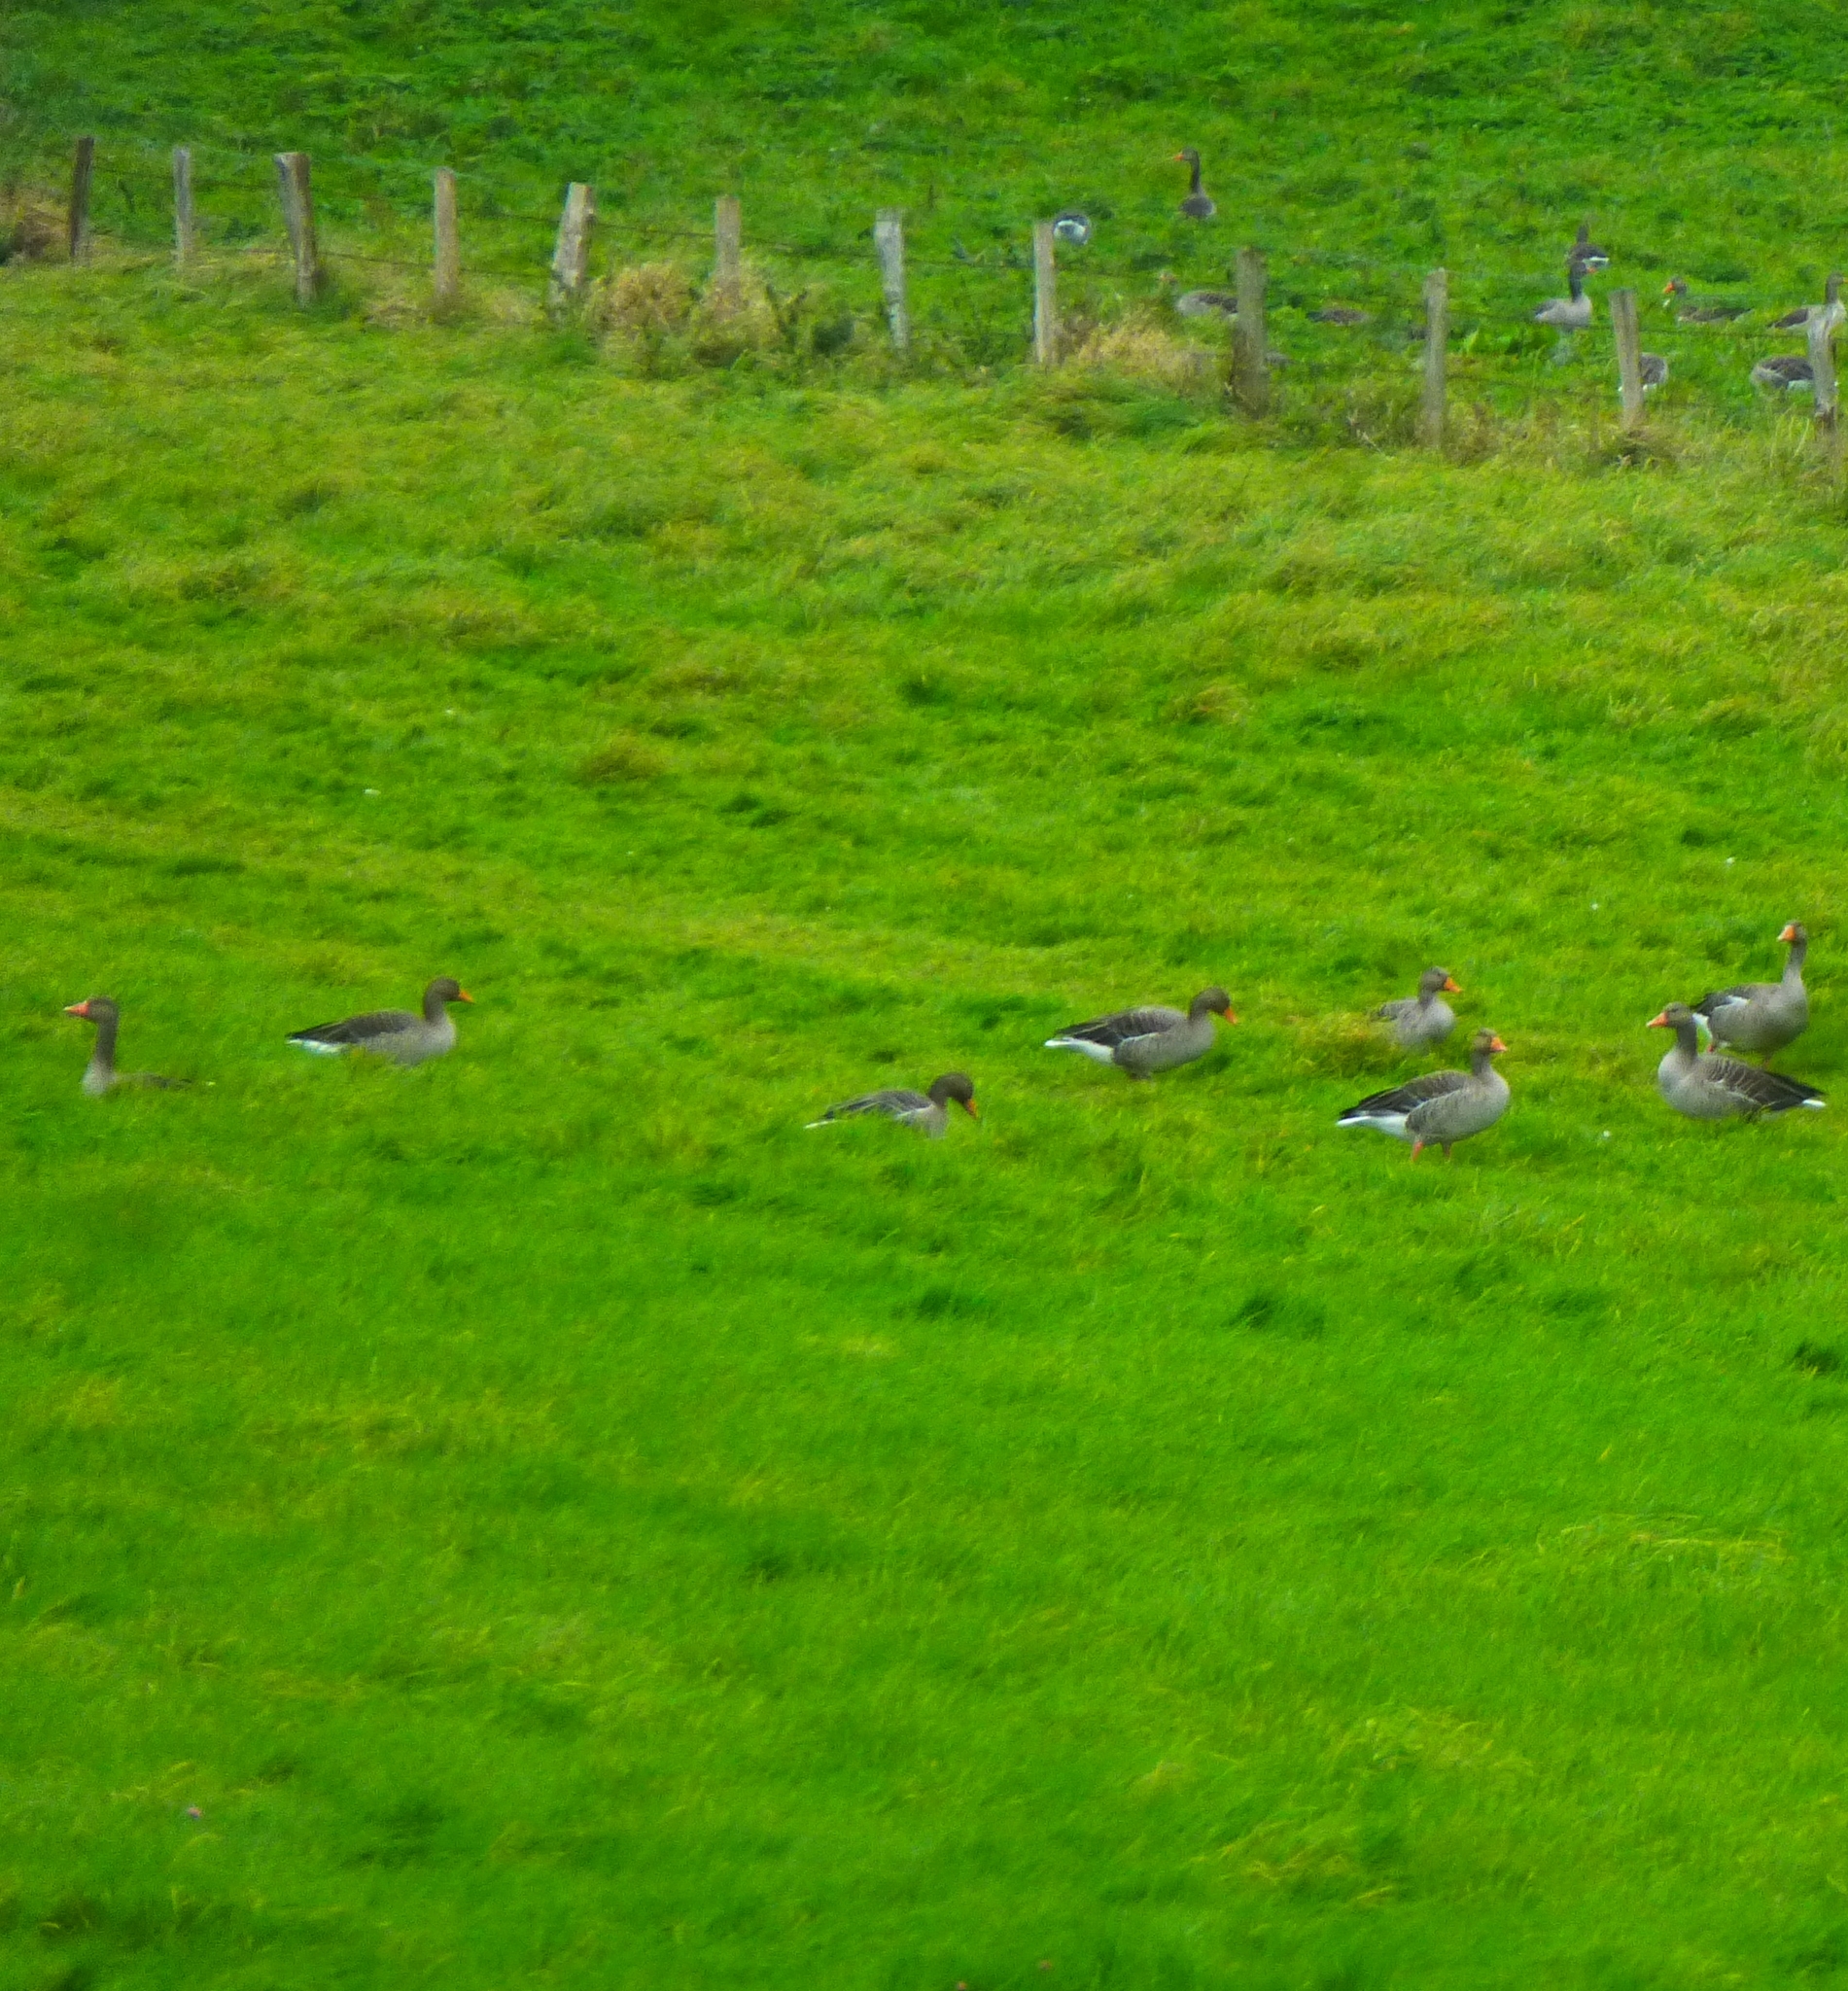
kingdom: Animalia
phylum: Chordata
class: Aves
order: Anseriformes
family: Anatidae
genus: Anser
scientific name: Anser anser
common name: Greylag goose
